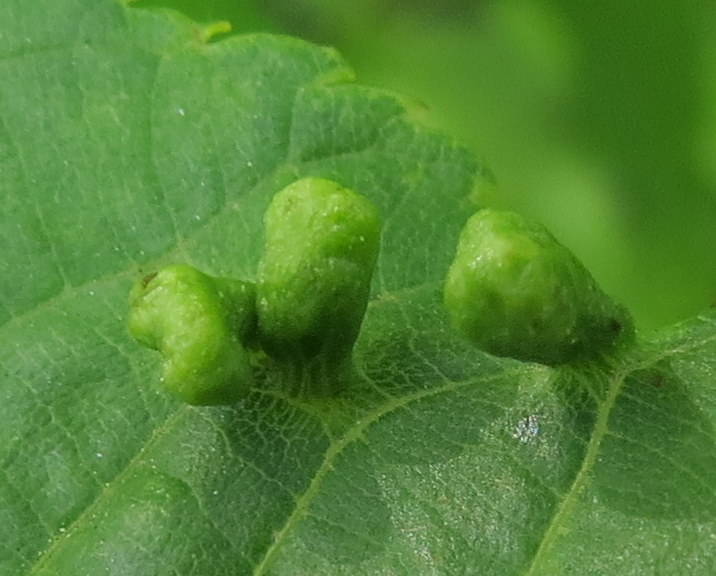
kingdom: Animalia
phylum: Arthropoda
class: Arachnida
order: Trombidiformes
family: Eriophyidae
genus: Aceria
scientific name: Aceria brachytarsus
